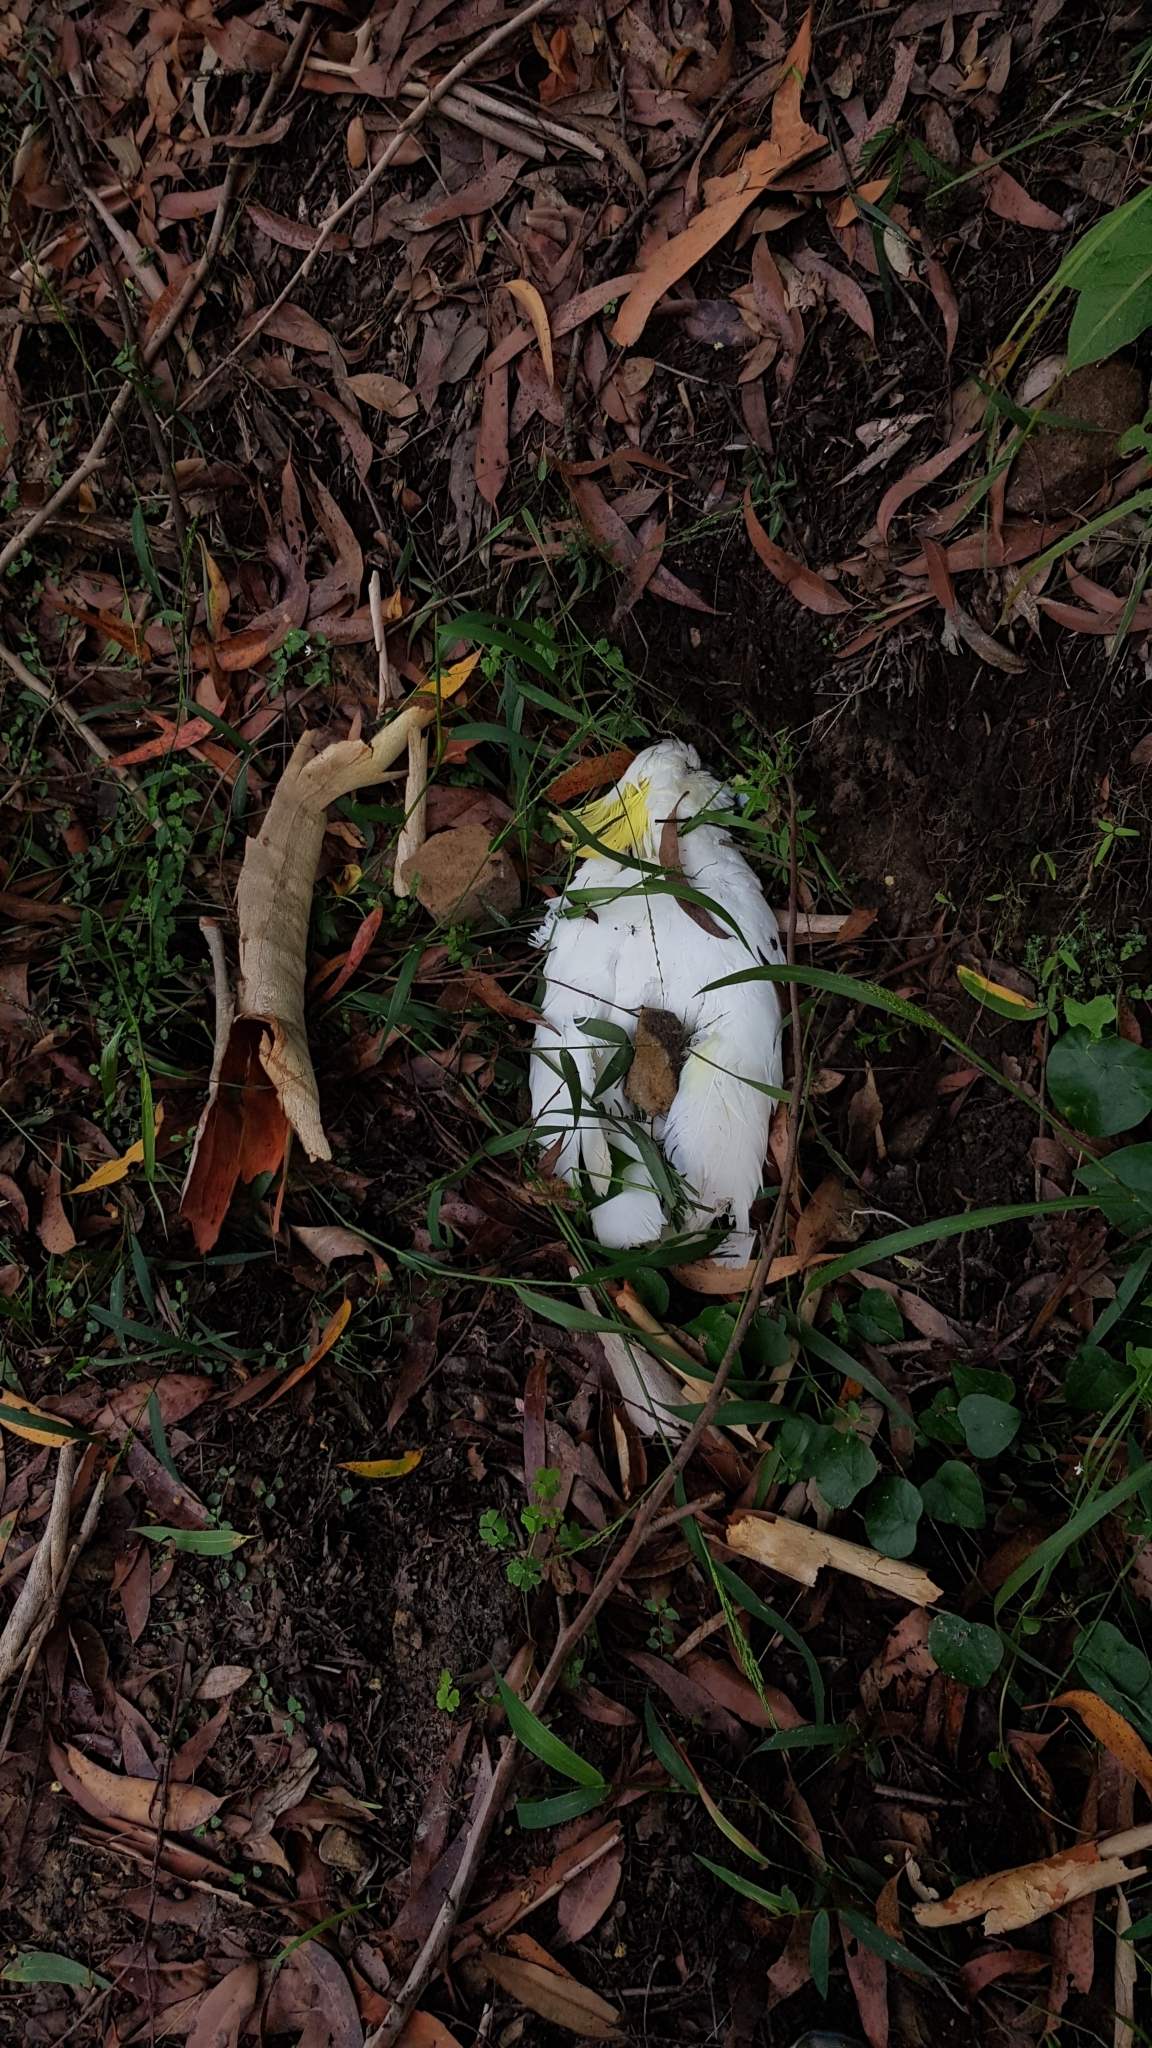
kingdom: Animalia
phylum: Chordata
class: Aves
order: Psittaciformes
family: Psittacidae
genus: Cacatua
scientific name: Cacatua galerita
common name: Sulphur-crested cockatoo
